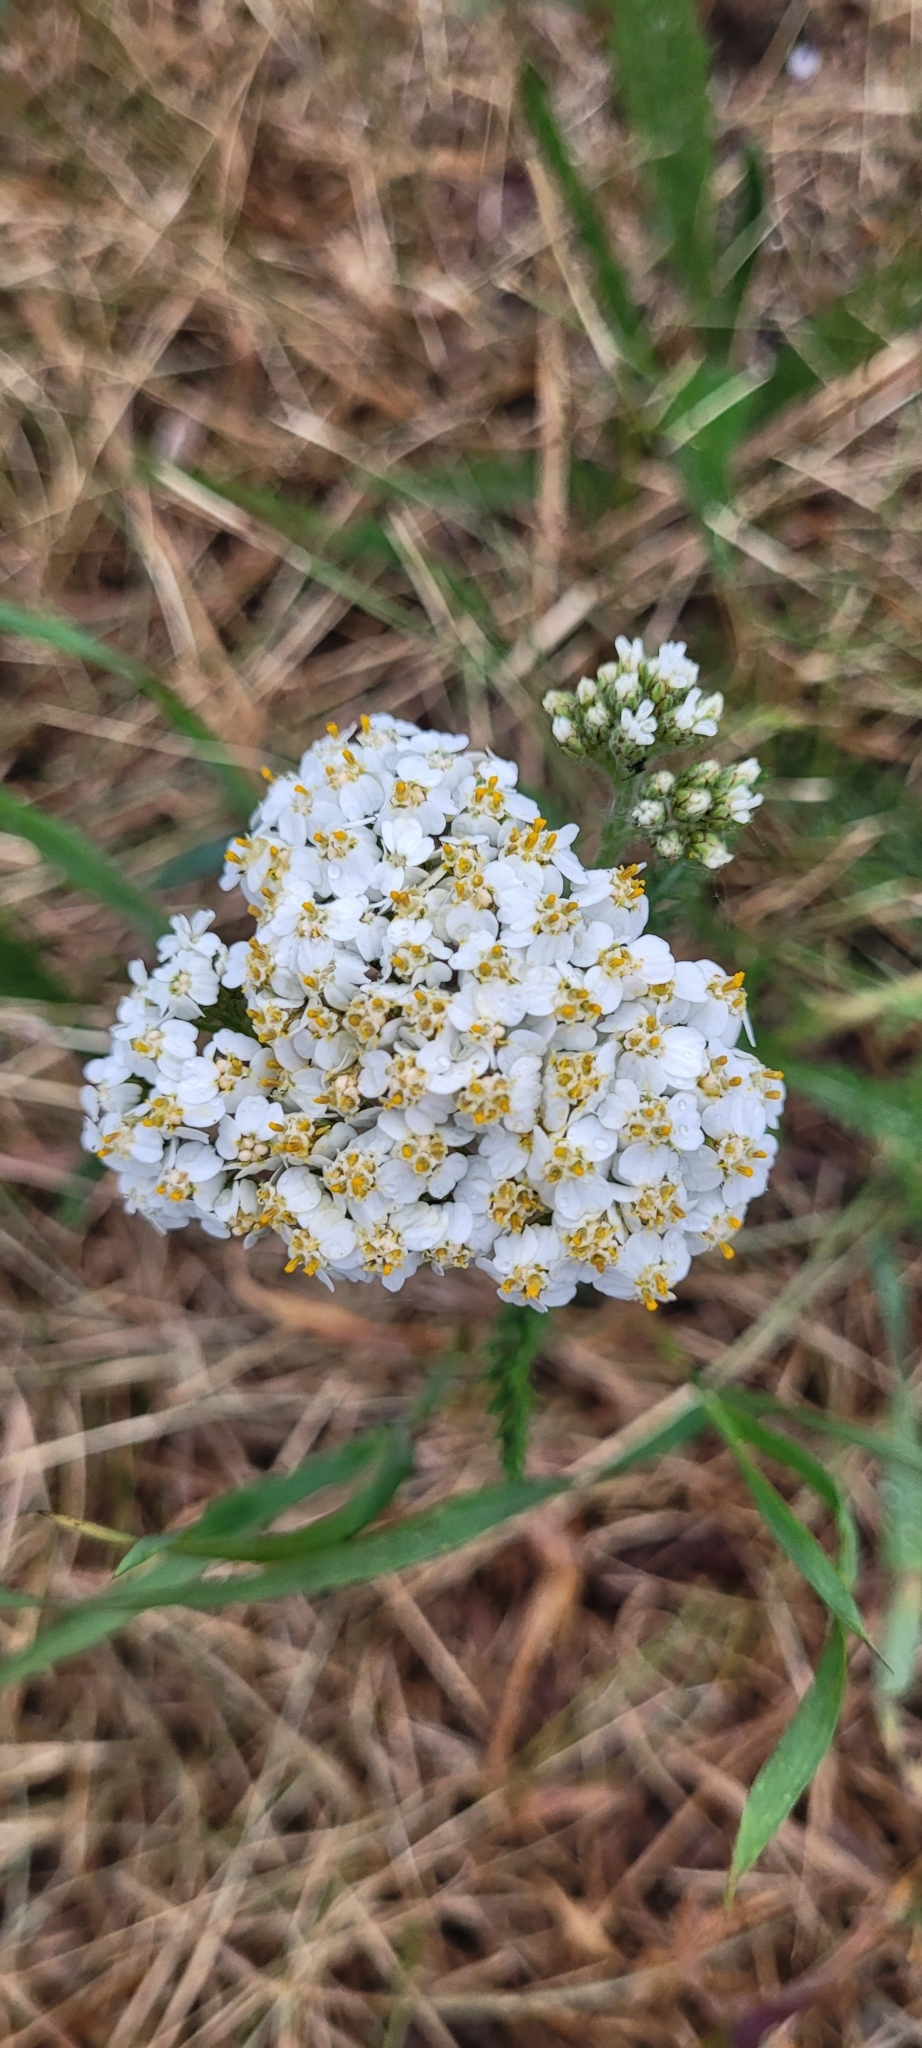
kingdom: Plantae
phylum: Tracheophyta
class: Magnoliopsida
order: Asterales
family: Asteraceae
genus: Achillea
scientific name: Achillea millefolium
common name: Yarrow
